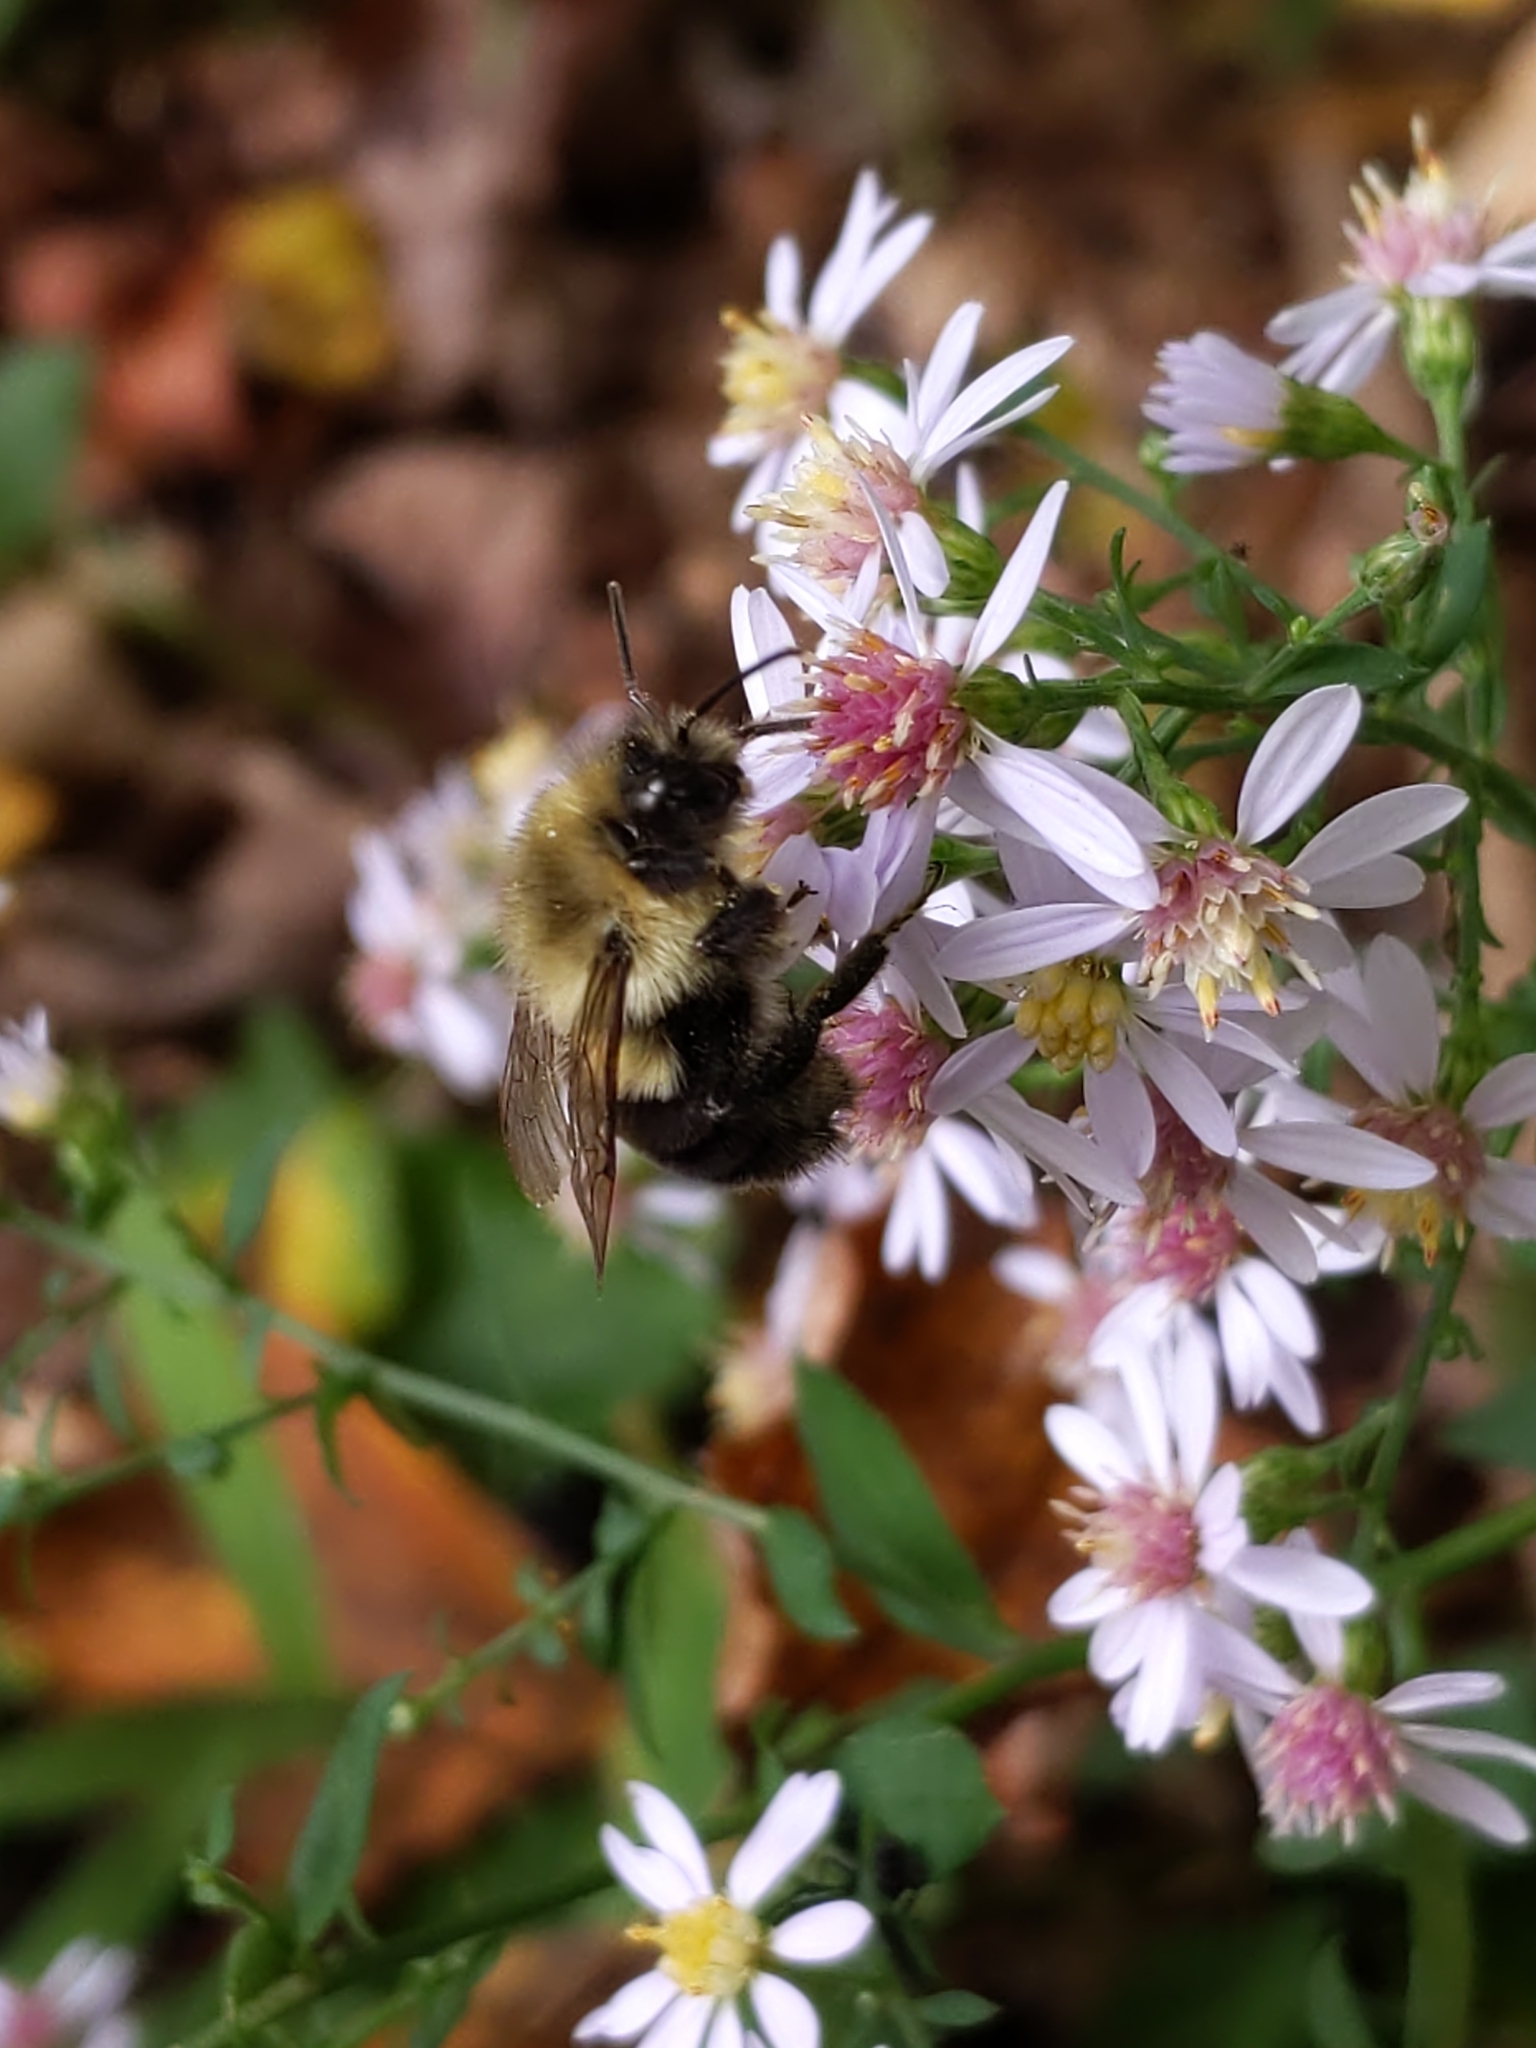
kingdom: Animalia
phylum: Arthropoda
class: Insecta
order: Hymenoptera
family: Apidae
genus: Bombus
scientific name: Bombus impatiens
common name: Common eastern bumble bee
